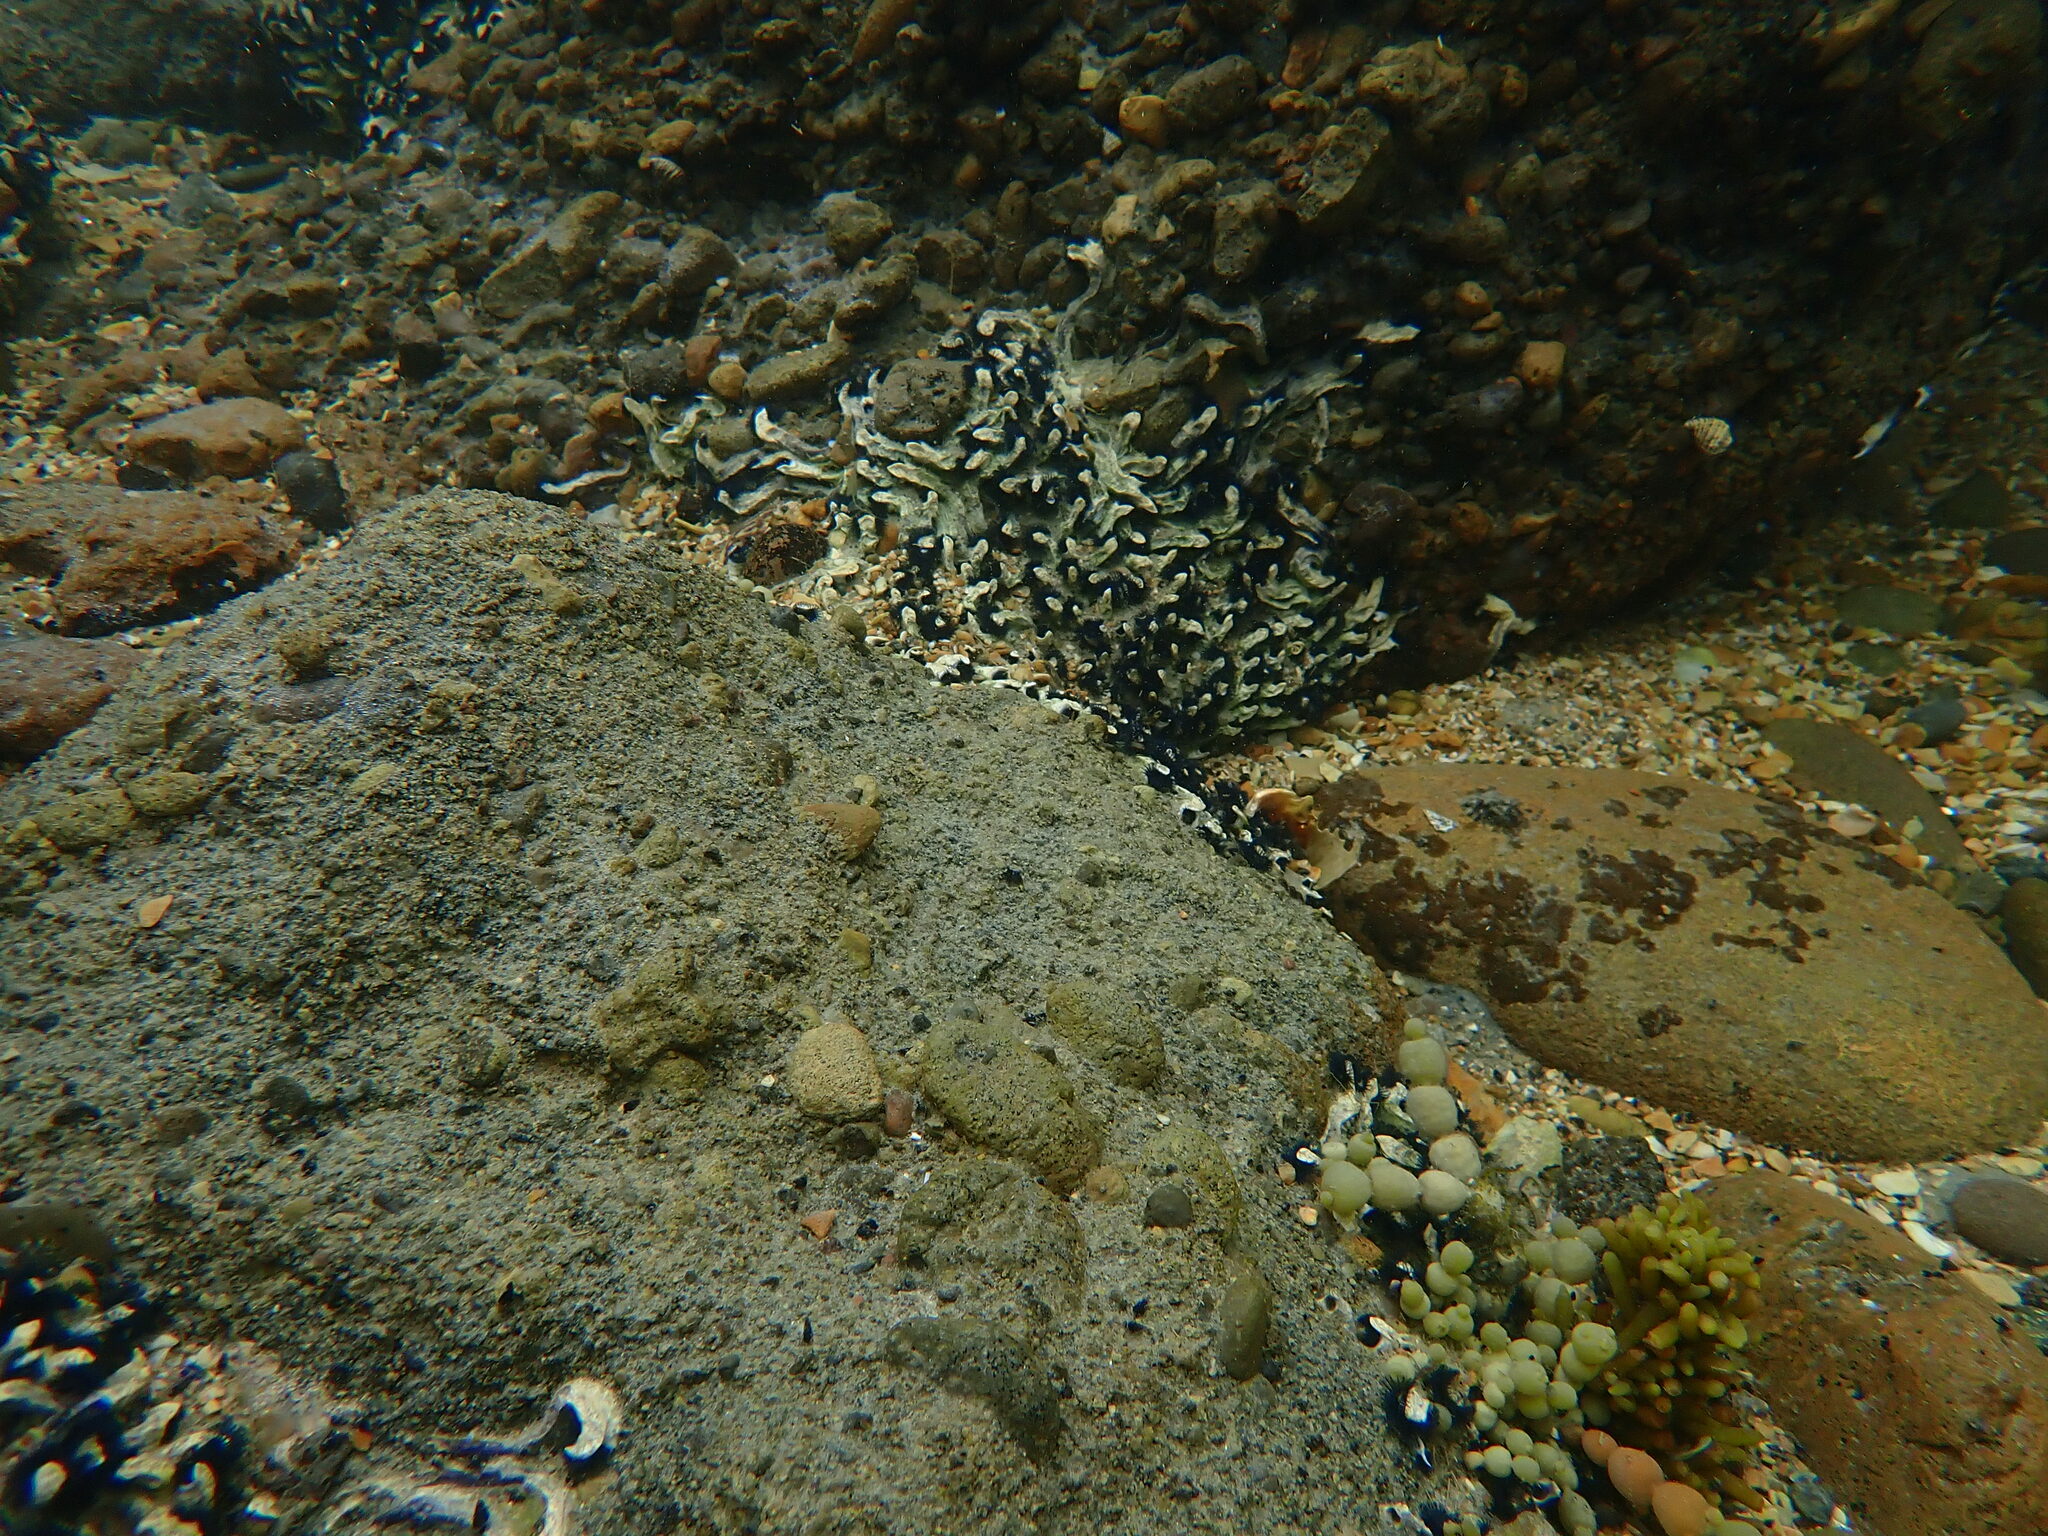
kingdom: Animalia
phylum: Annelida
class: Polychaeta
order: Sabellida
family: Serpulidae
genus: Spirobranchus
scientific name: Spirobranchus cariniferus
